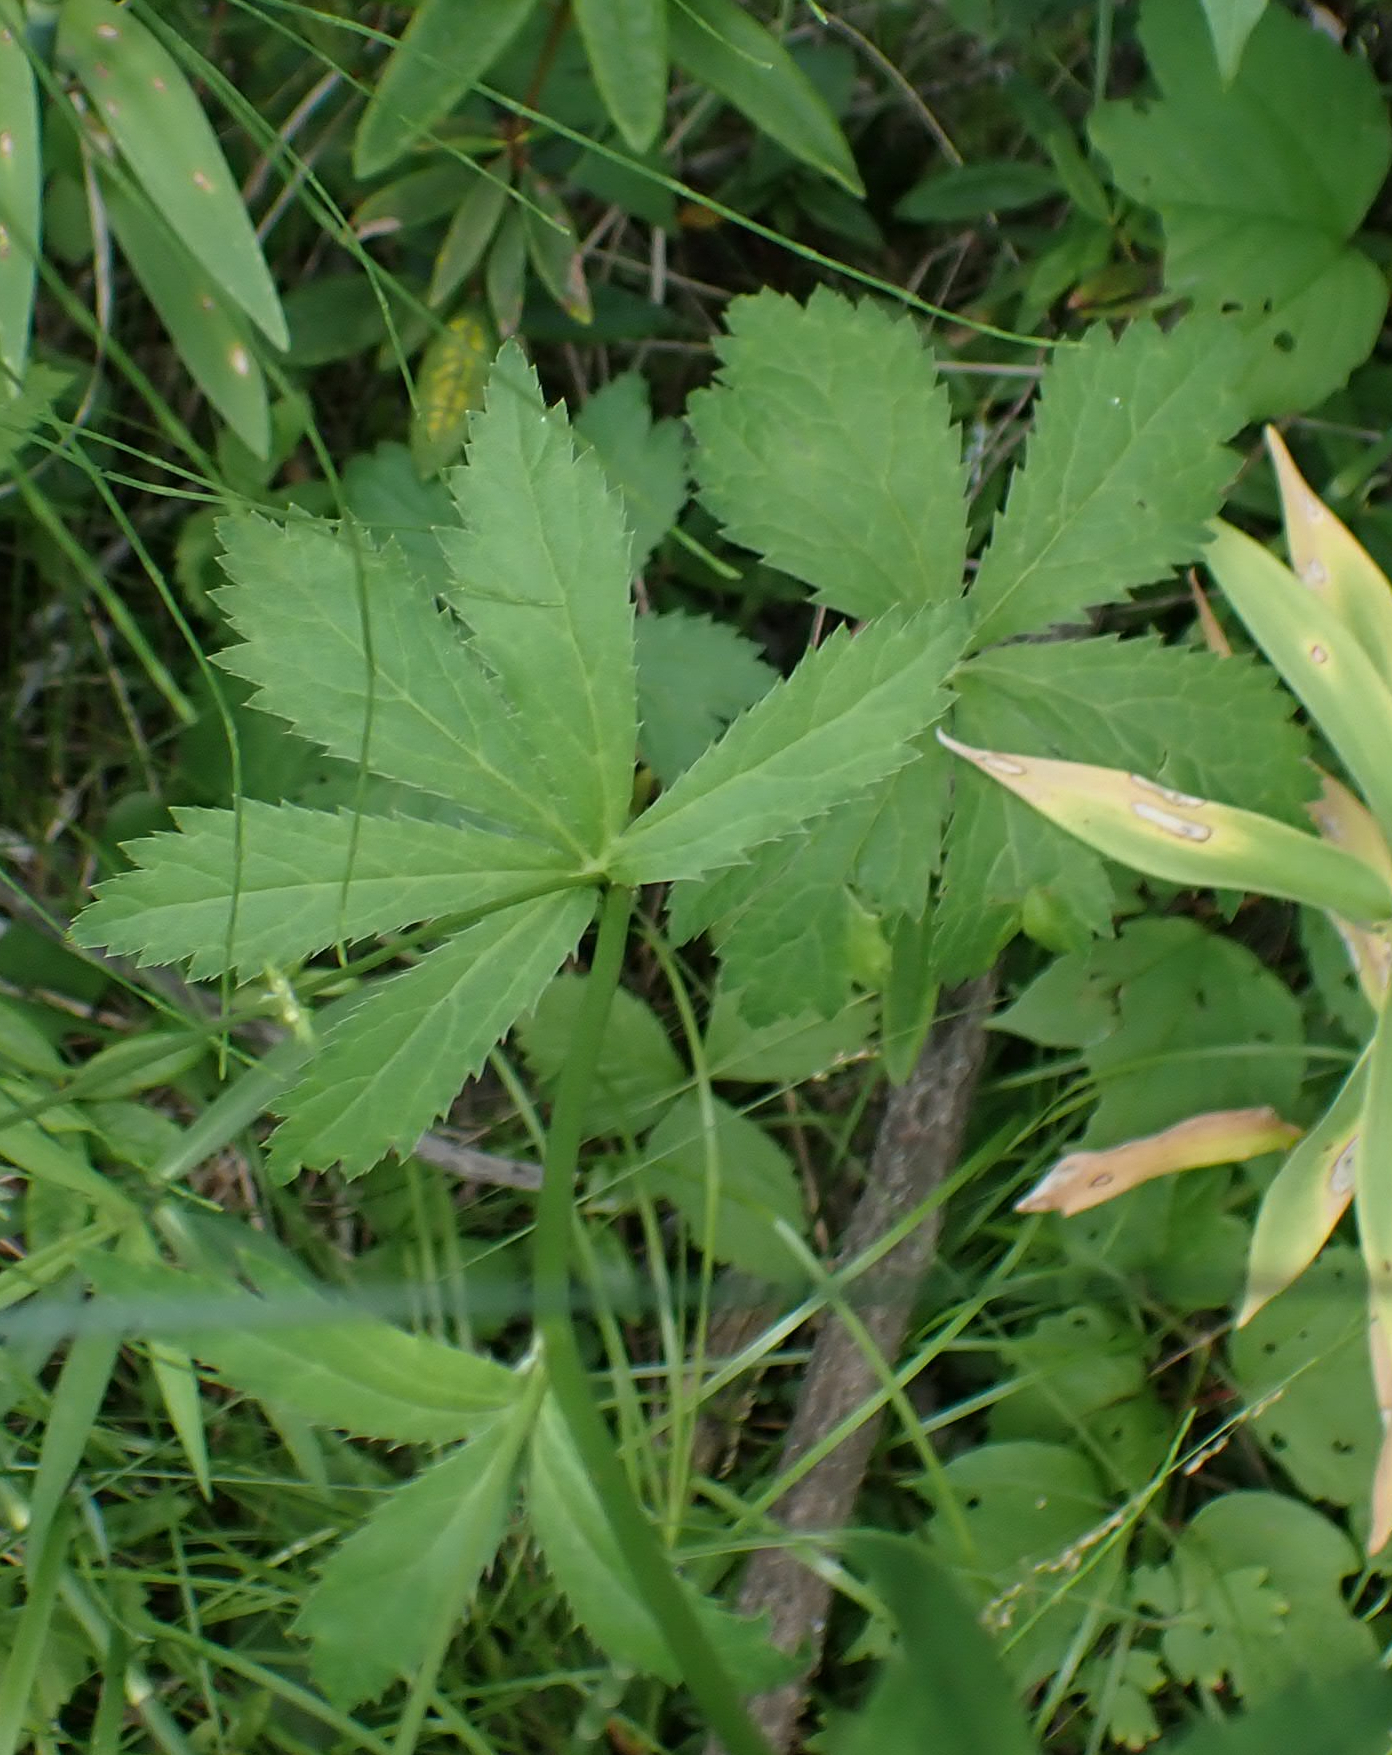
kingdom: Plantae
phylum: Tracheophyta
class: Magnoliopsida
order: Apiales
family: Apiaceae
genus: Sanicula
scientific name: Sanicula marilandica
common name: Black snakeroot
